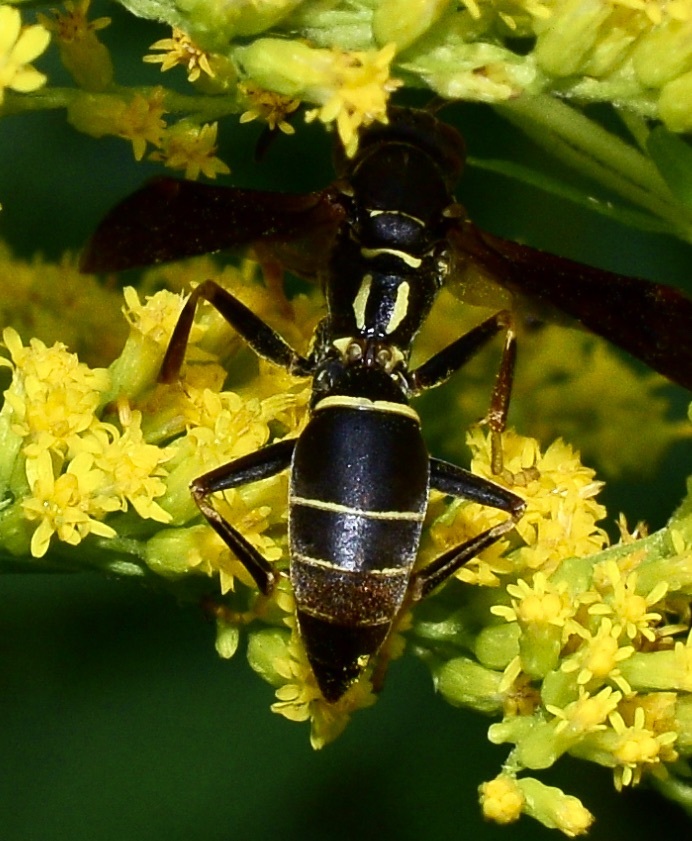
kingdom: Animalia
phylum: Arthropoda
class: Insecta
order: Hymenoptera
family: Eumenidae
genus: Polistes
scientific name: Polistes fuscatus
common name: Dark paper wasp
